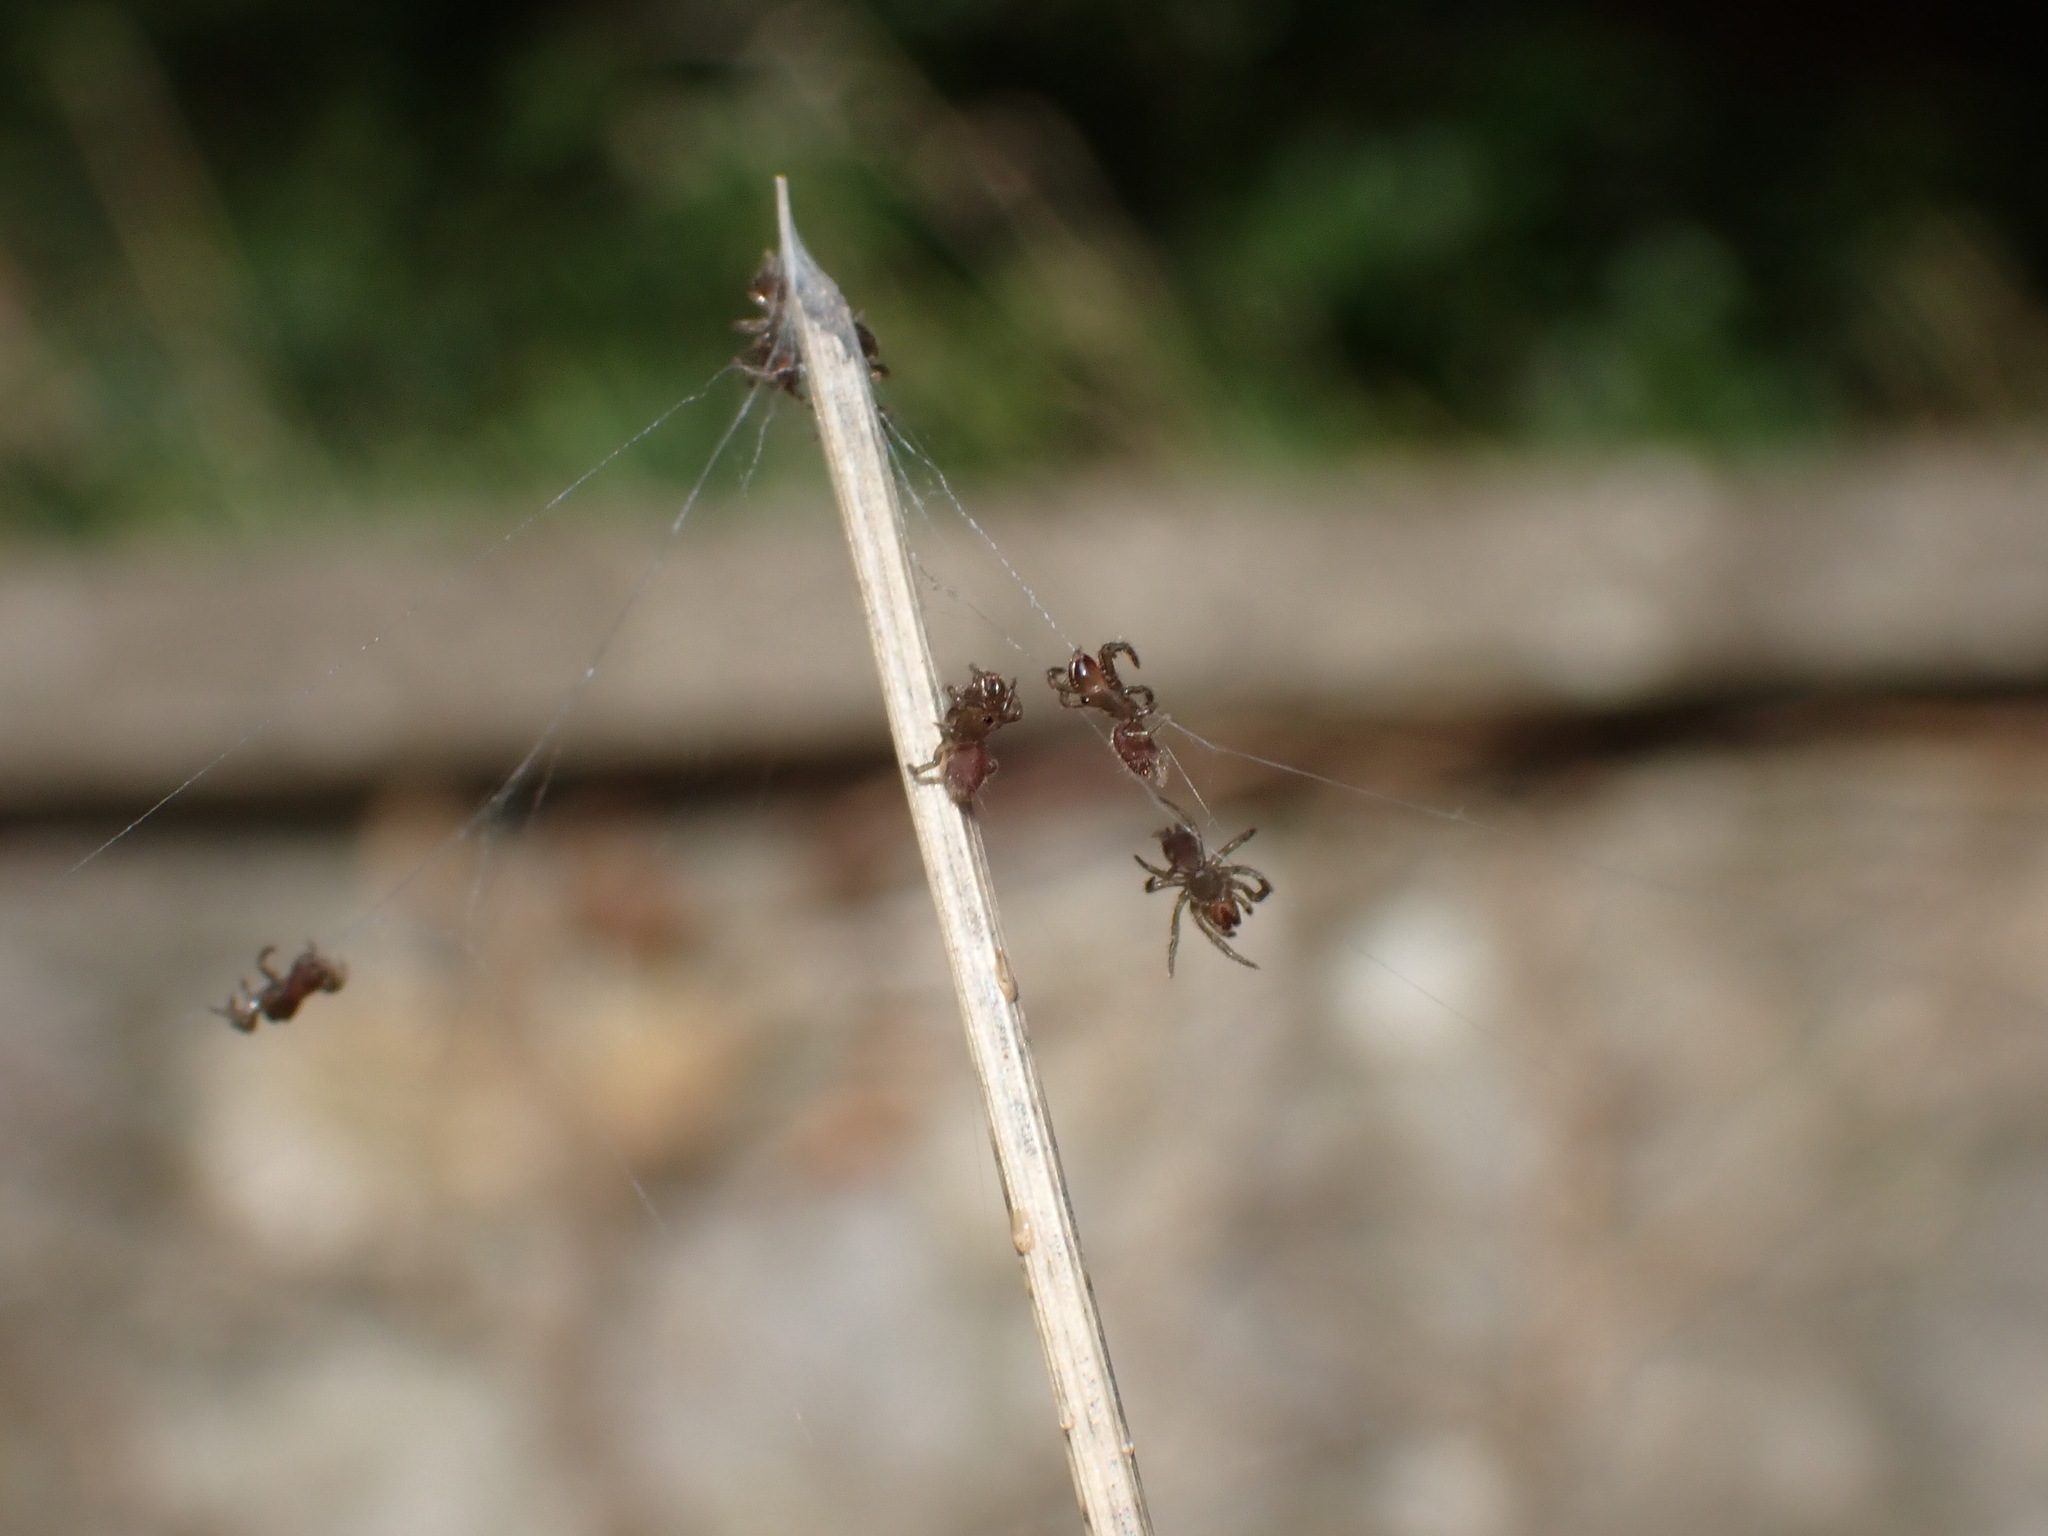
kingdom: Animalia
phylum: Arthropoda
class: Arachnida
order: Araneae
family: Atypidae
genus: Atypus
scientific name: Atypus affinis
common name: Purse web spider
